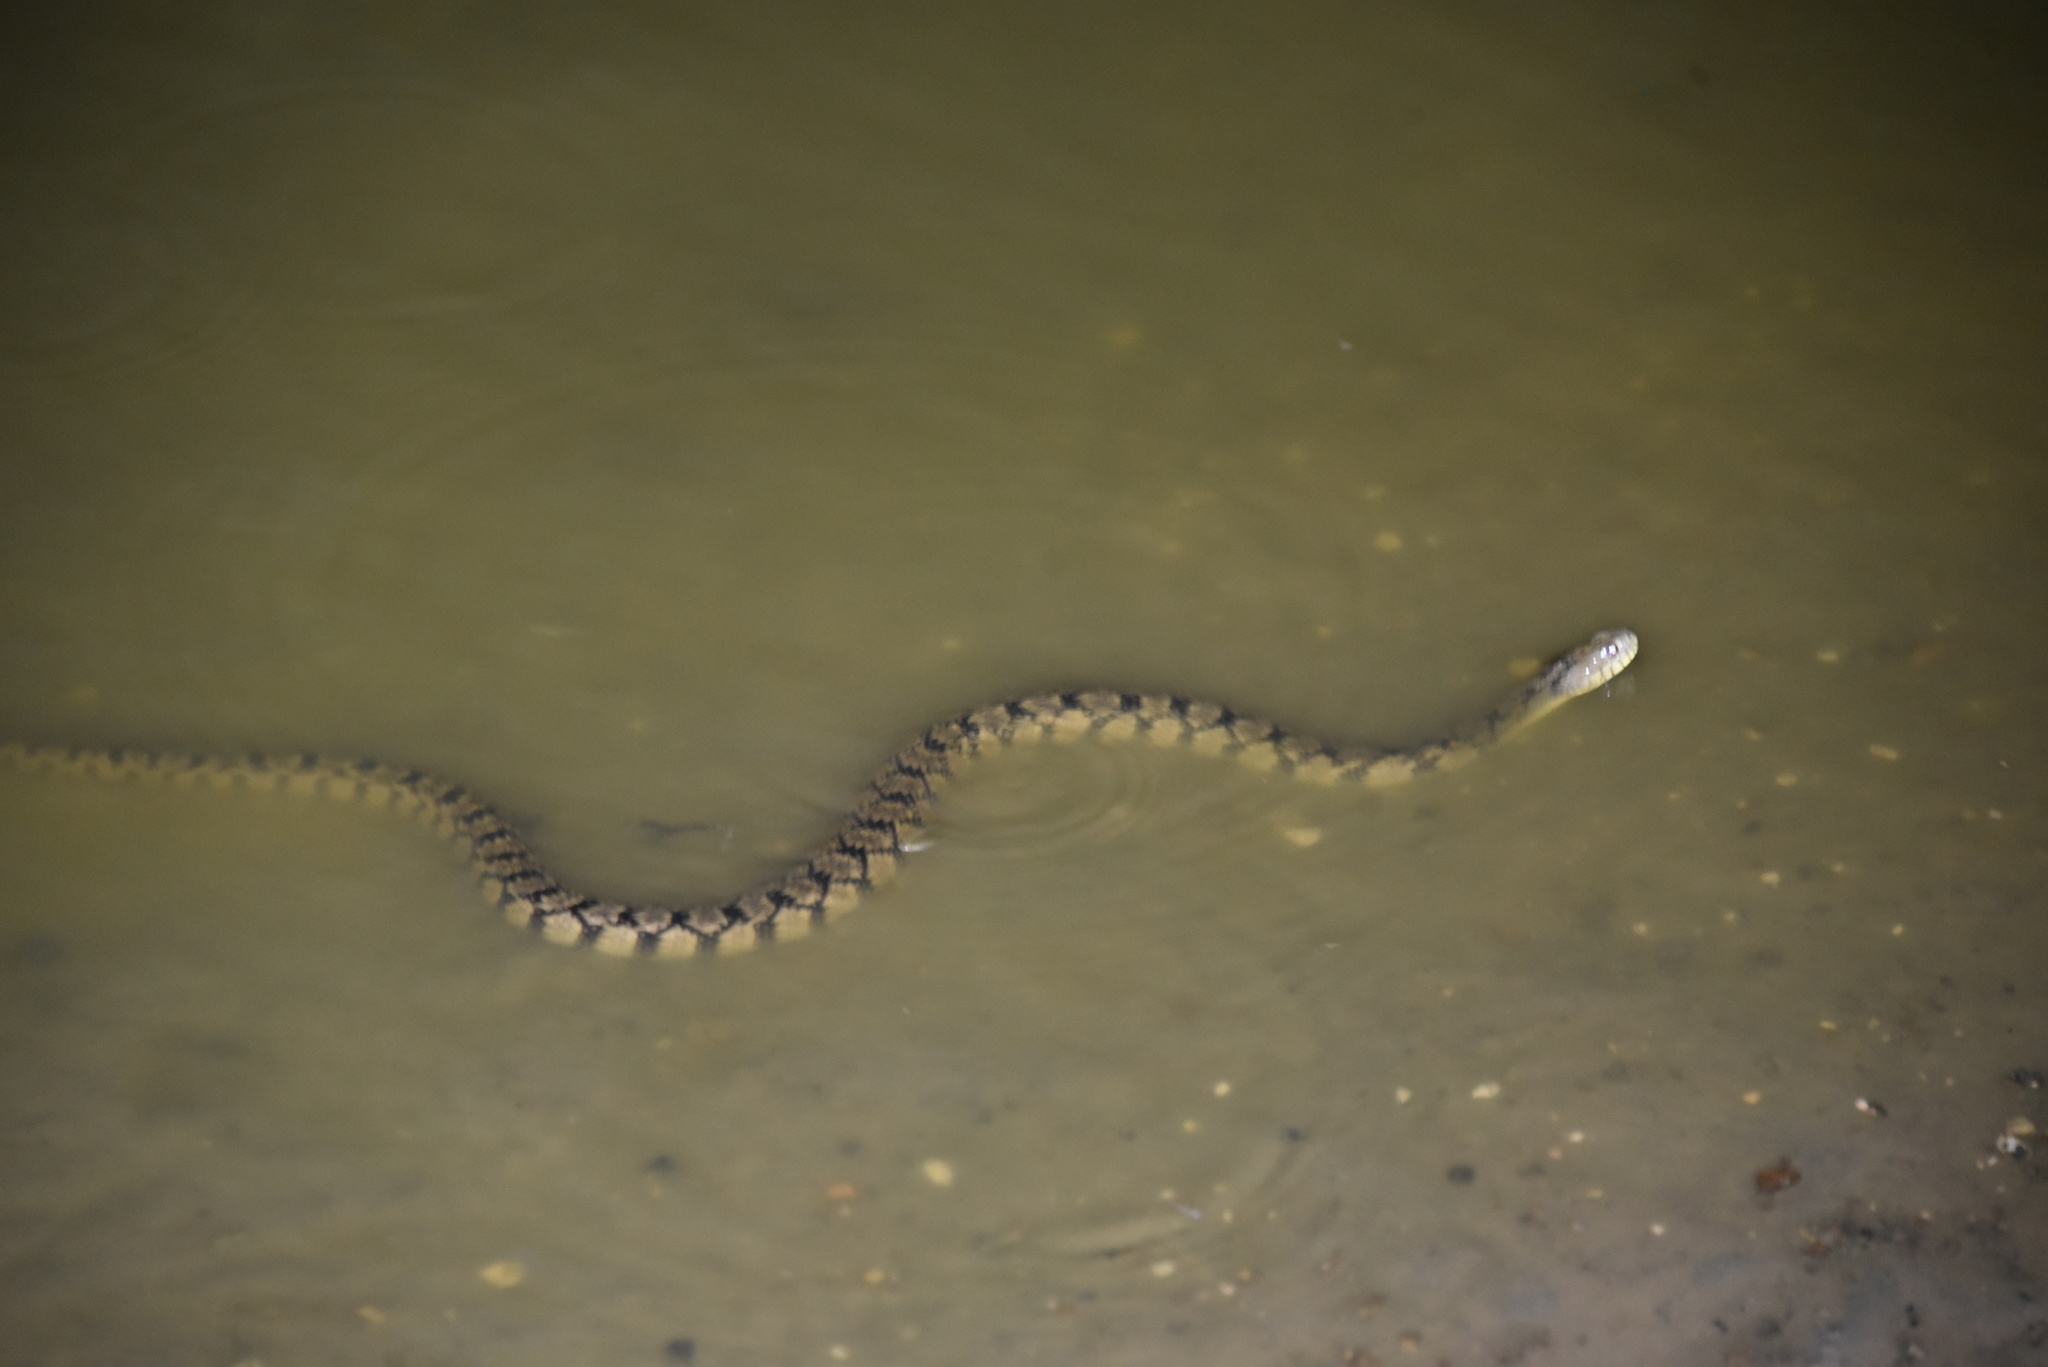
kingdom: Animalia
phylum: Chordata
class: Squamata
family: Colubridae
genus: Nerodia
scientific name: Nerodia rhombifer
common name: Diamondback water snake
